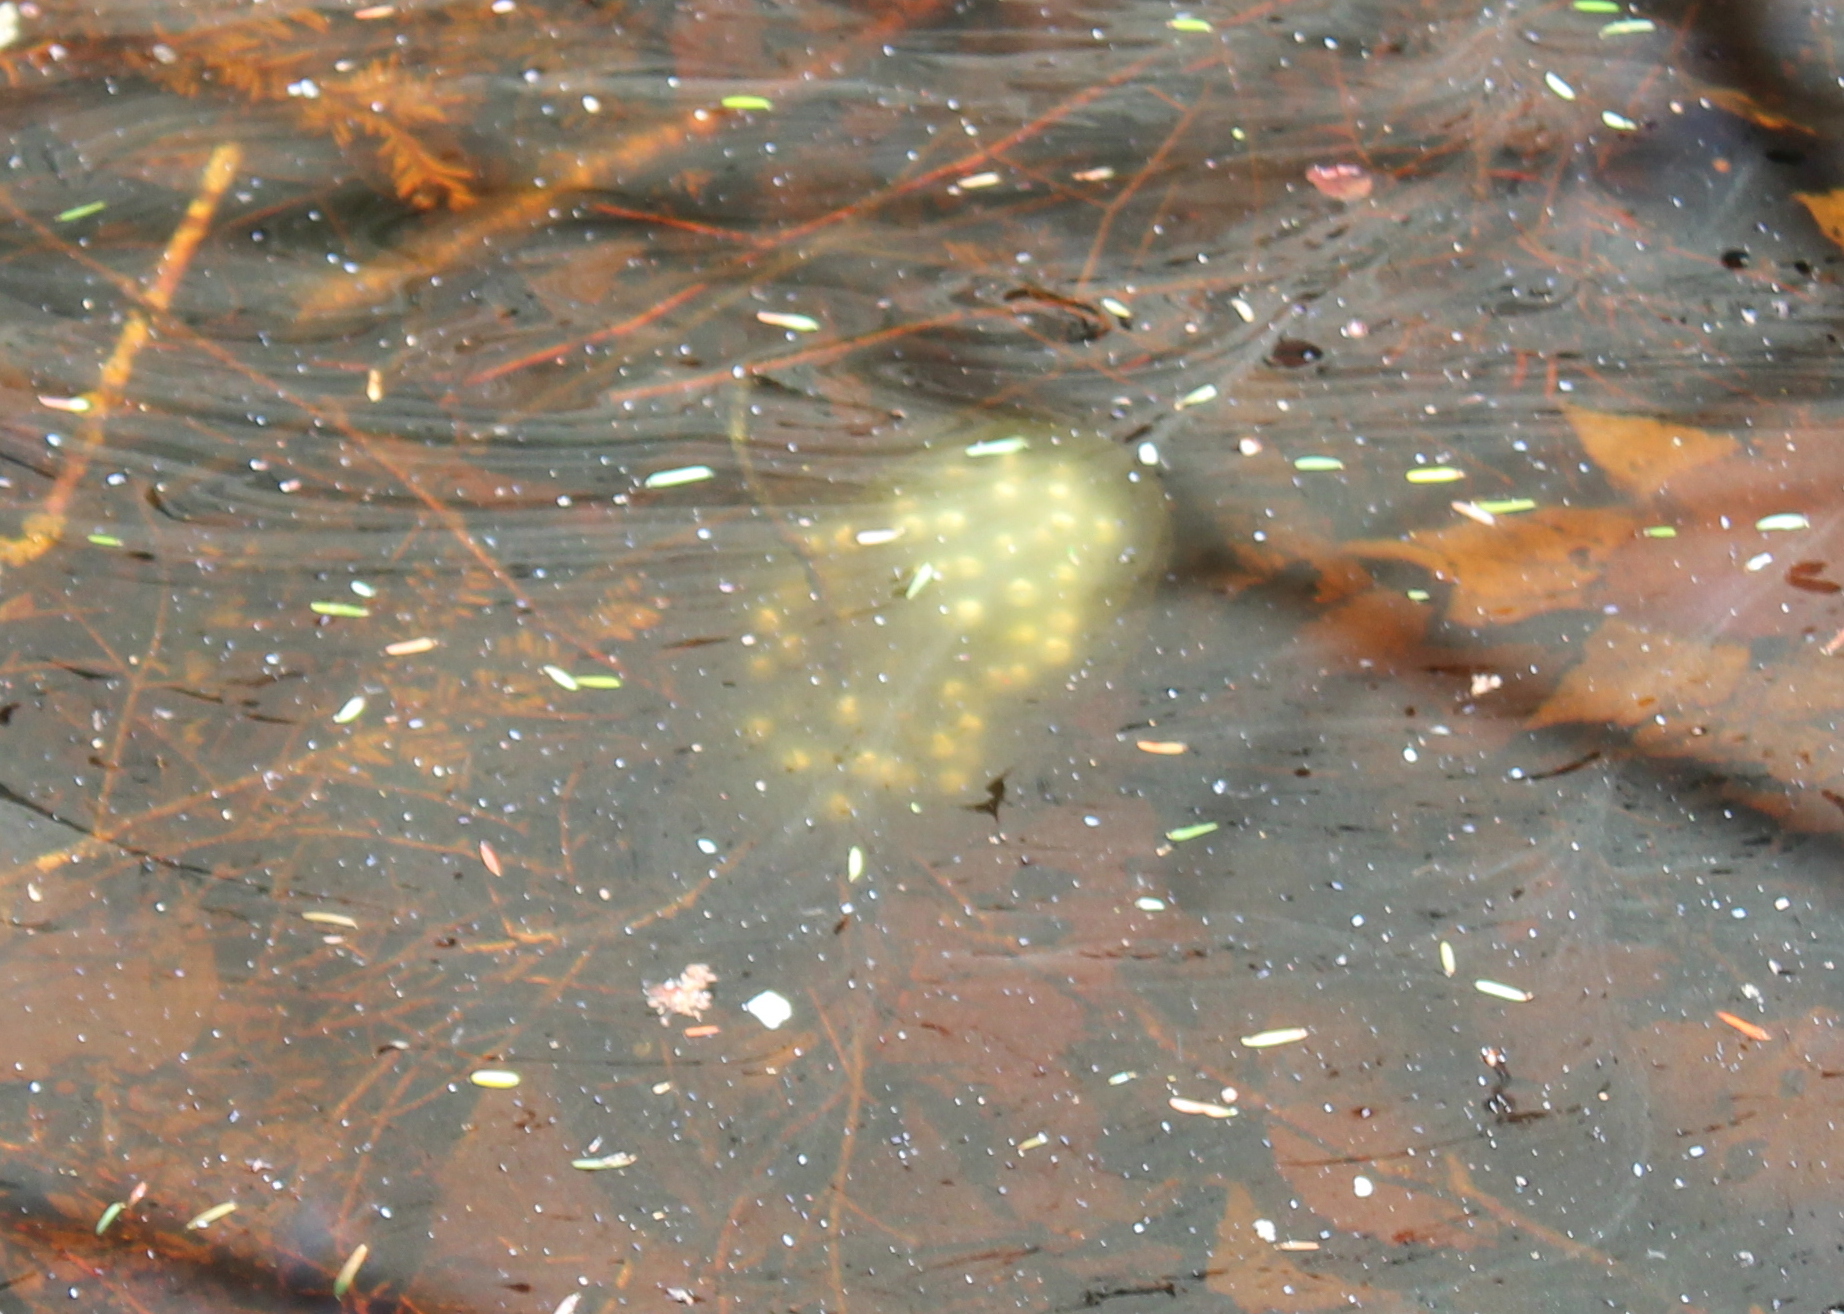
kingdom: Animalia
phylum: Chordata
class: Amphibia
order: Caudata
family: Ambystomatidae
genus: Ambystoma
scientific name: Ambystoma maculatum
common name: Spotted salamander
